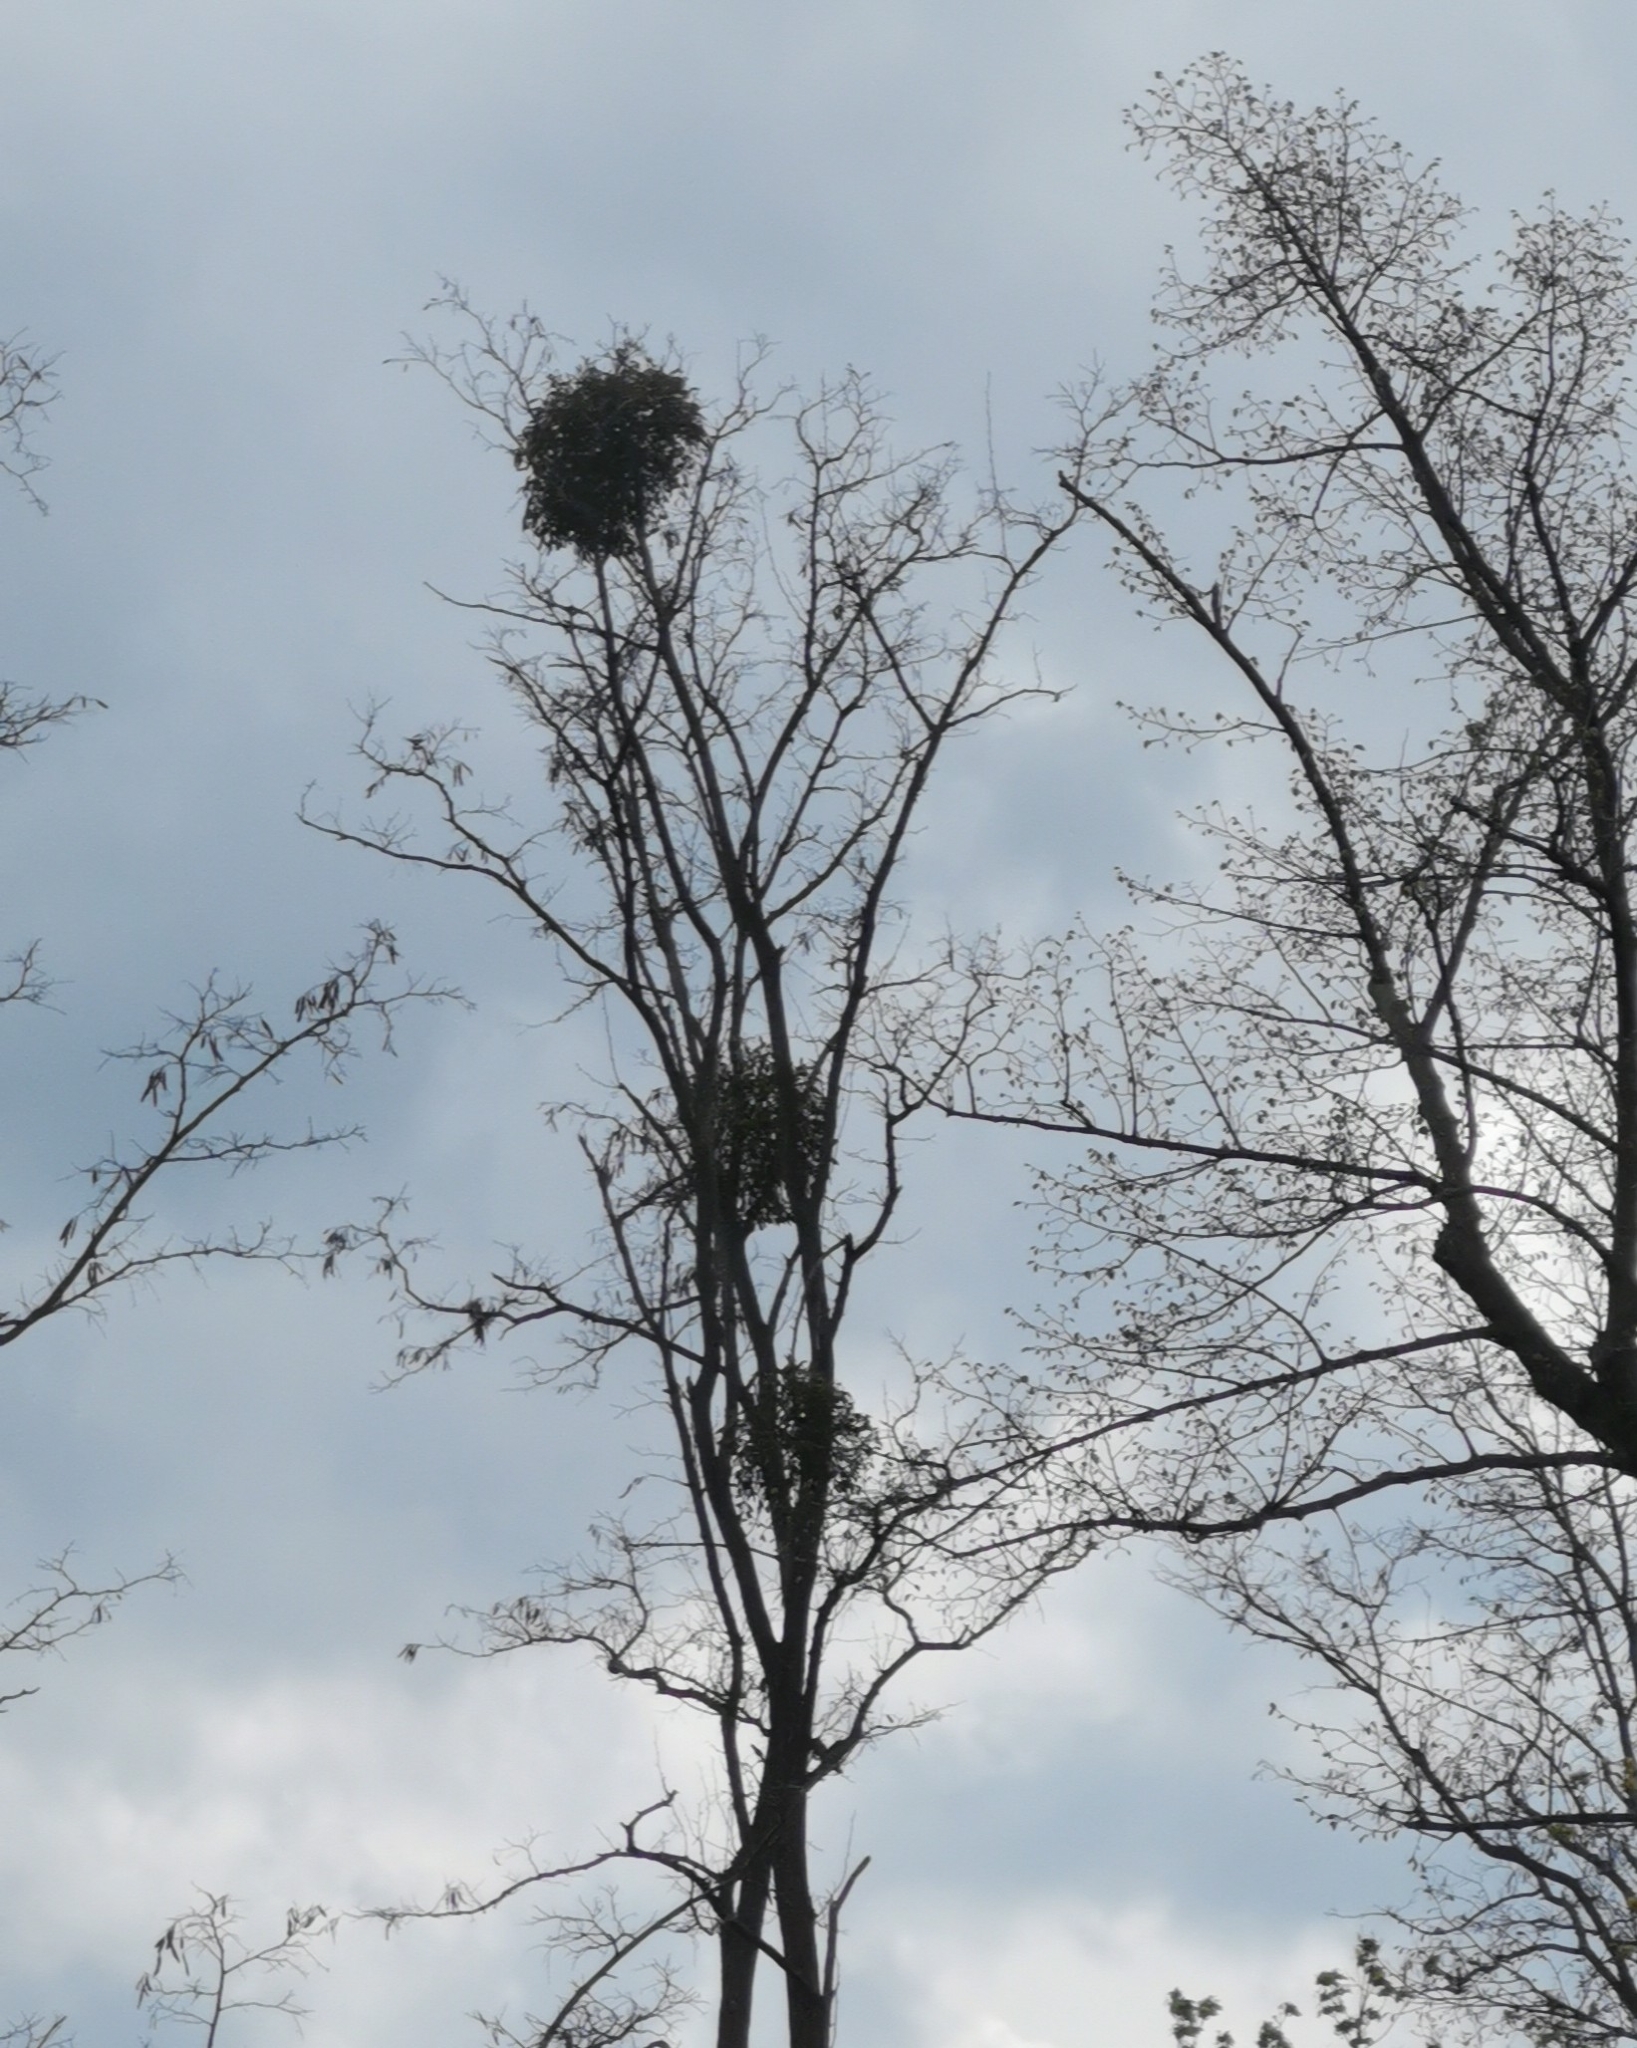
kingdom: Plantae
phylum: Tracheophyta
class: Magnoliopsida
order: Santalales
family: Viscaceae
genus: Viscum
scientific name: Viscum album
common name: Mistletoe
